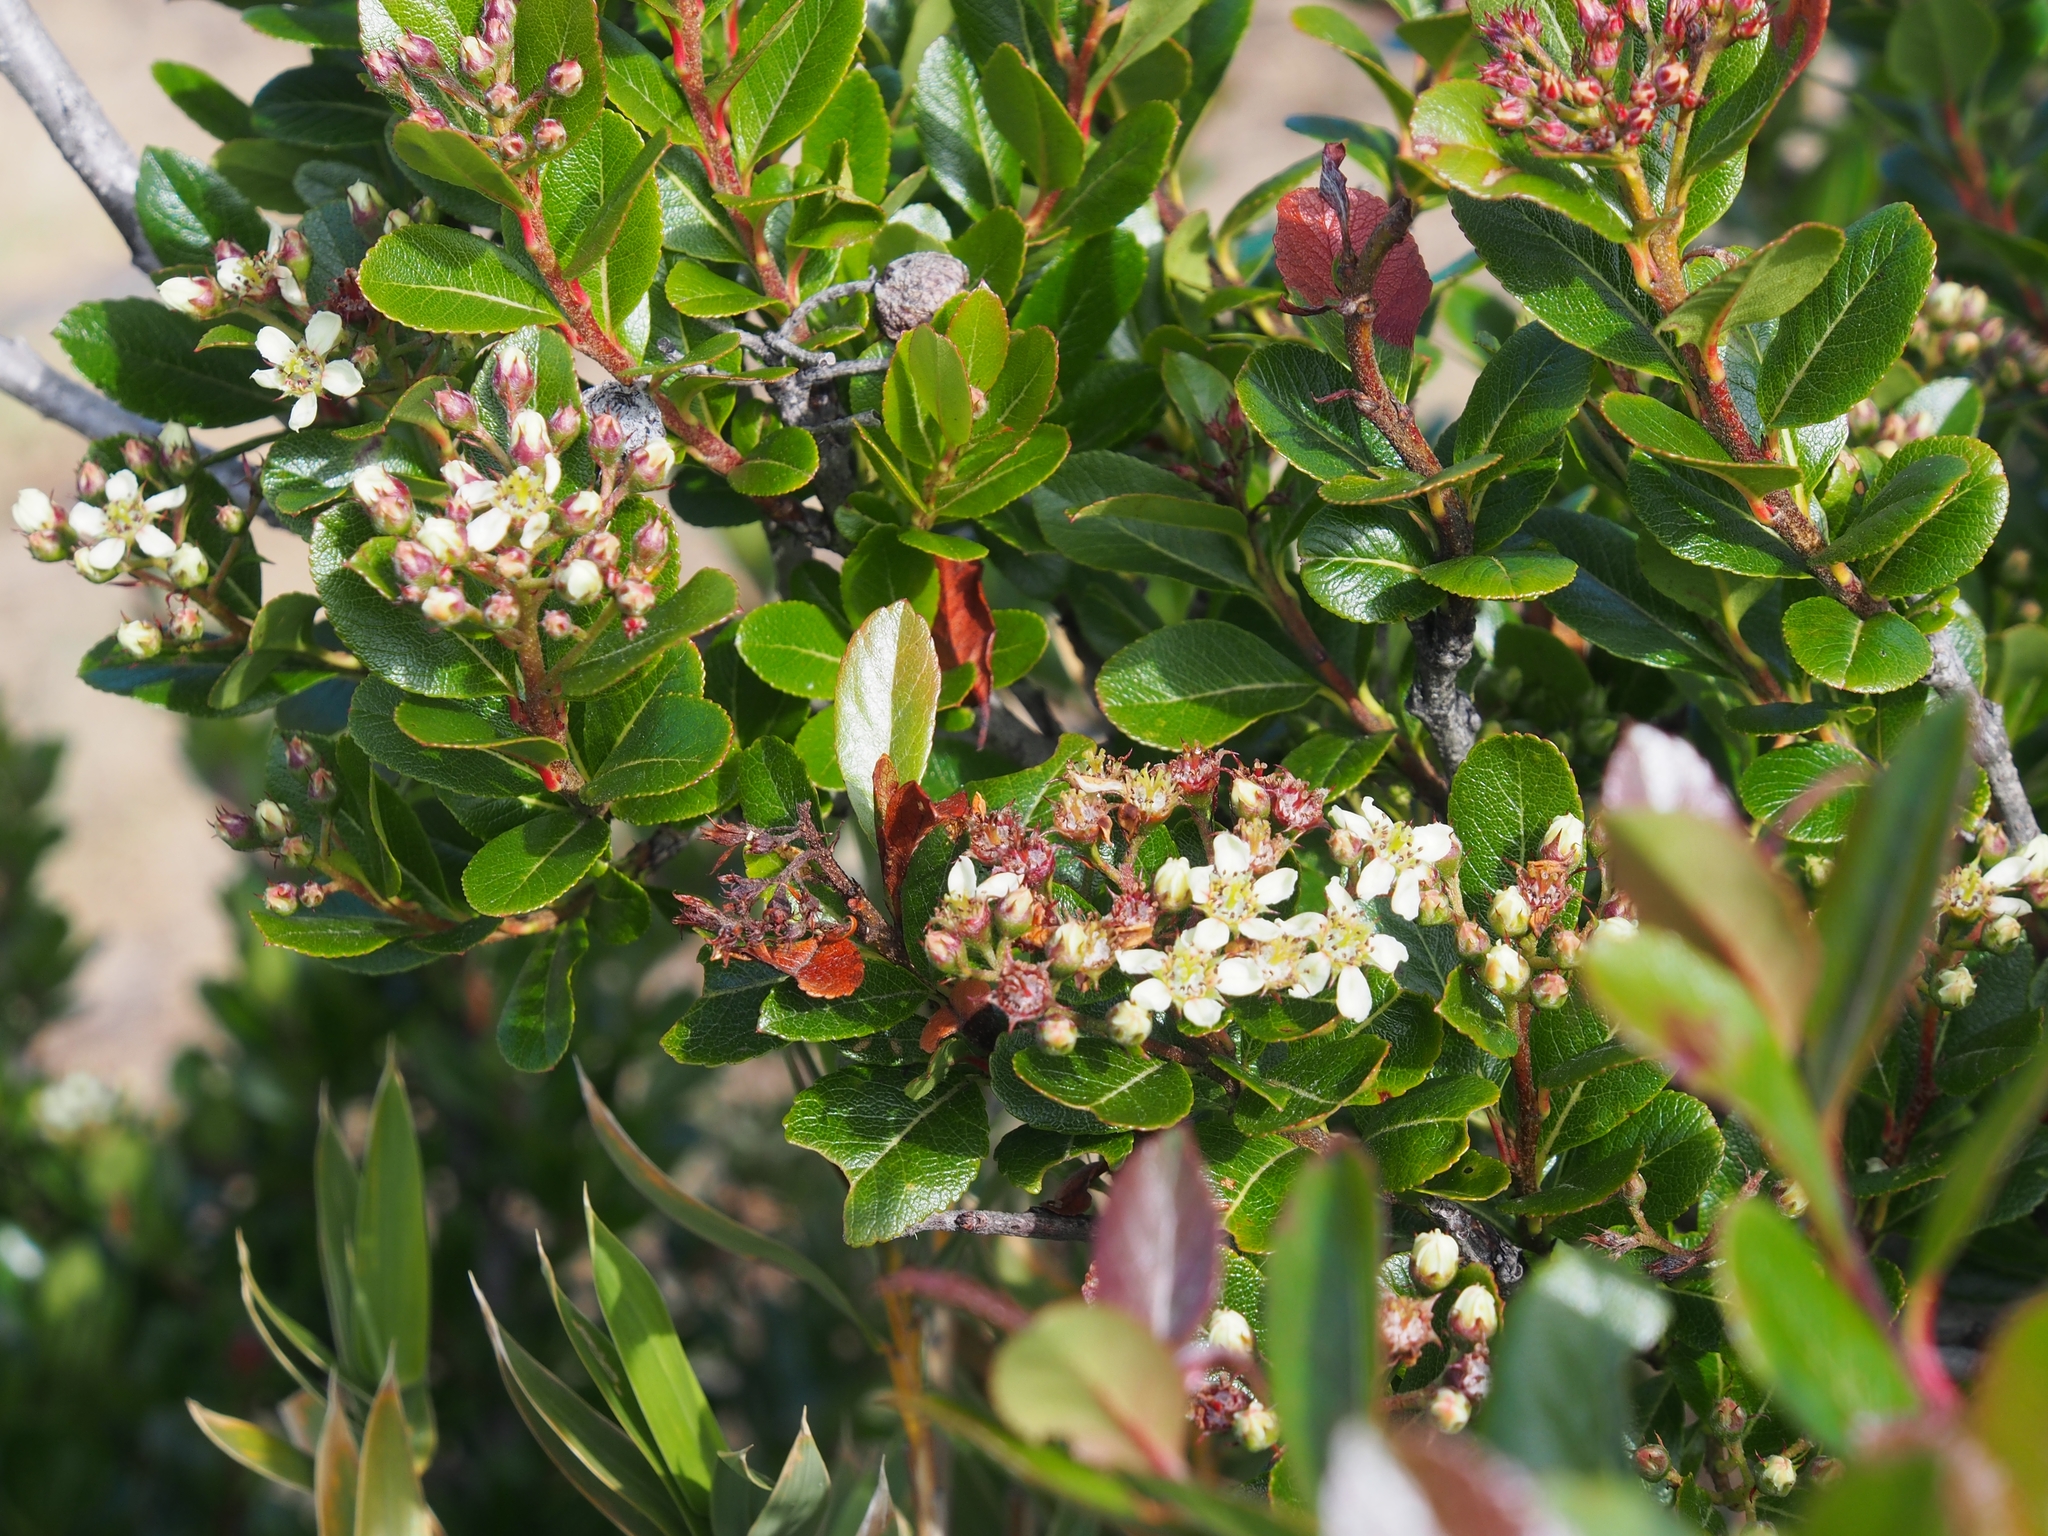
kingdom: Plantae
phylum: Tracheophyta
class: Magnoliopsida
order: Rosales
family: Rosaceae
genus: Hesperomeles
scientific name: Hesperomeles obtusifolia
